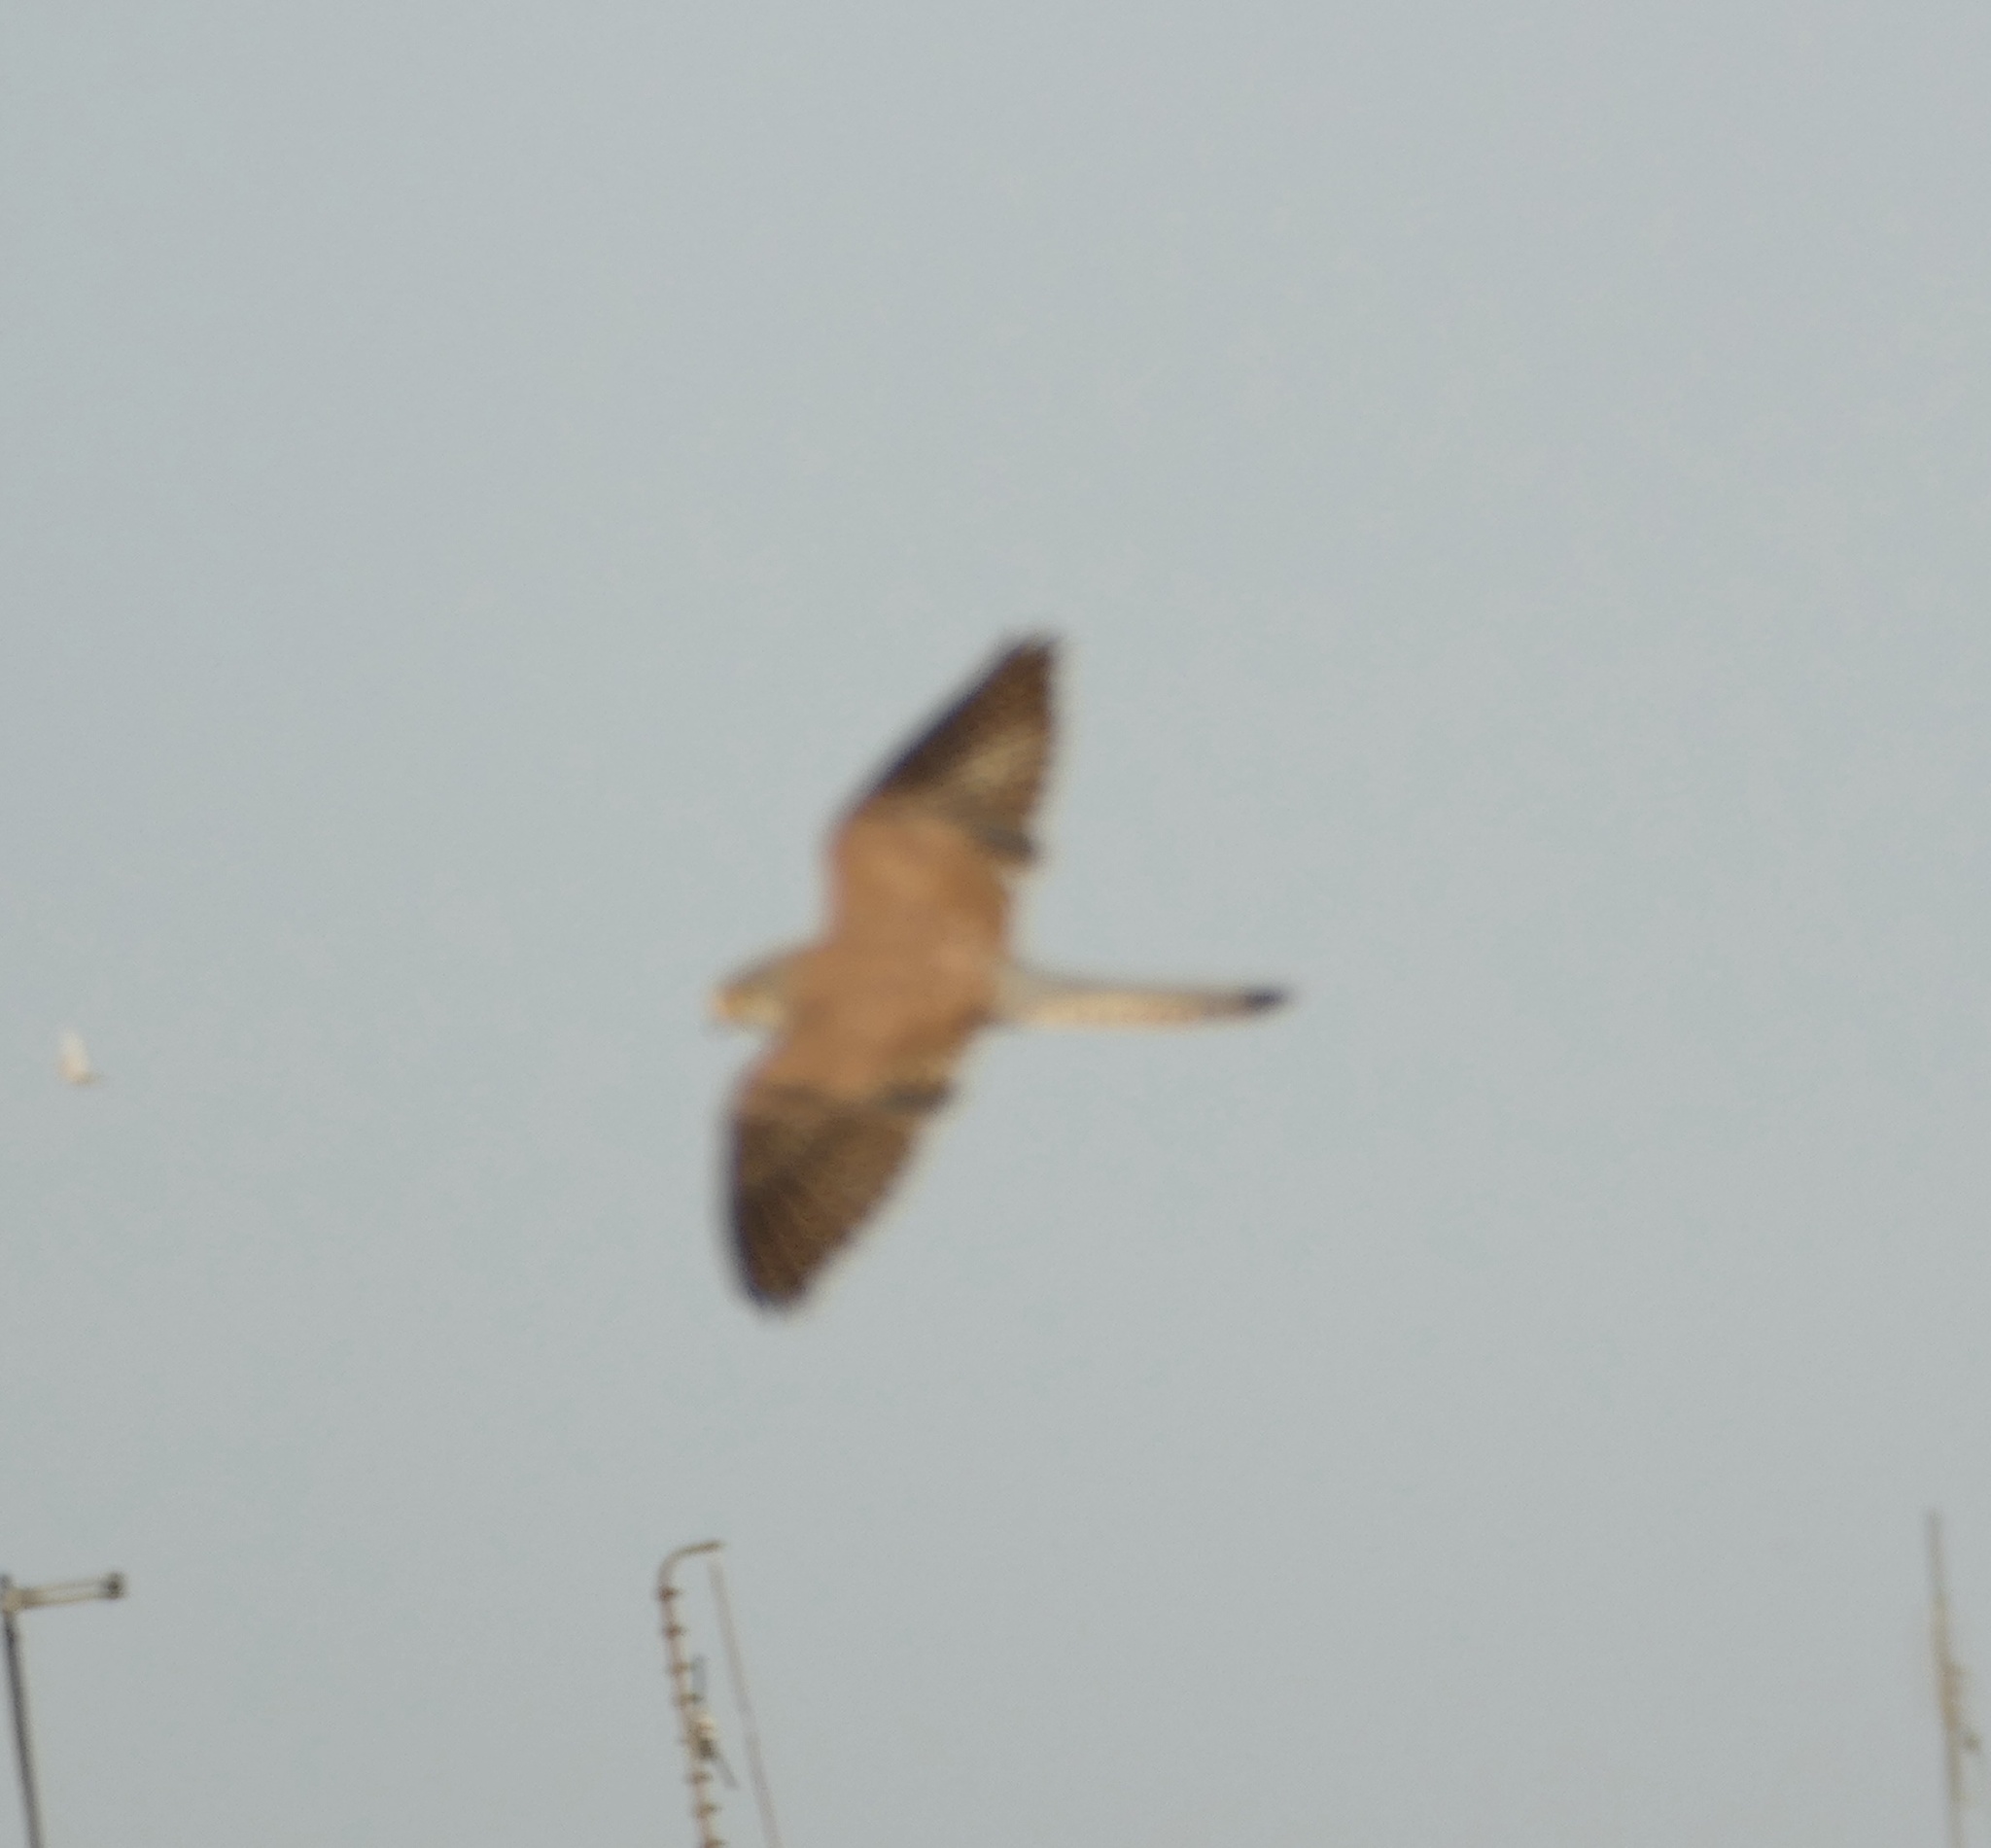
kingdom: Animalia
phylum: Chordata
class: Aves
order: Falconiformes
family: Falconidae
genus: Falco
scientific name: Falco tinnunculus
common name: Common kestrel
